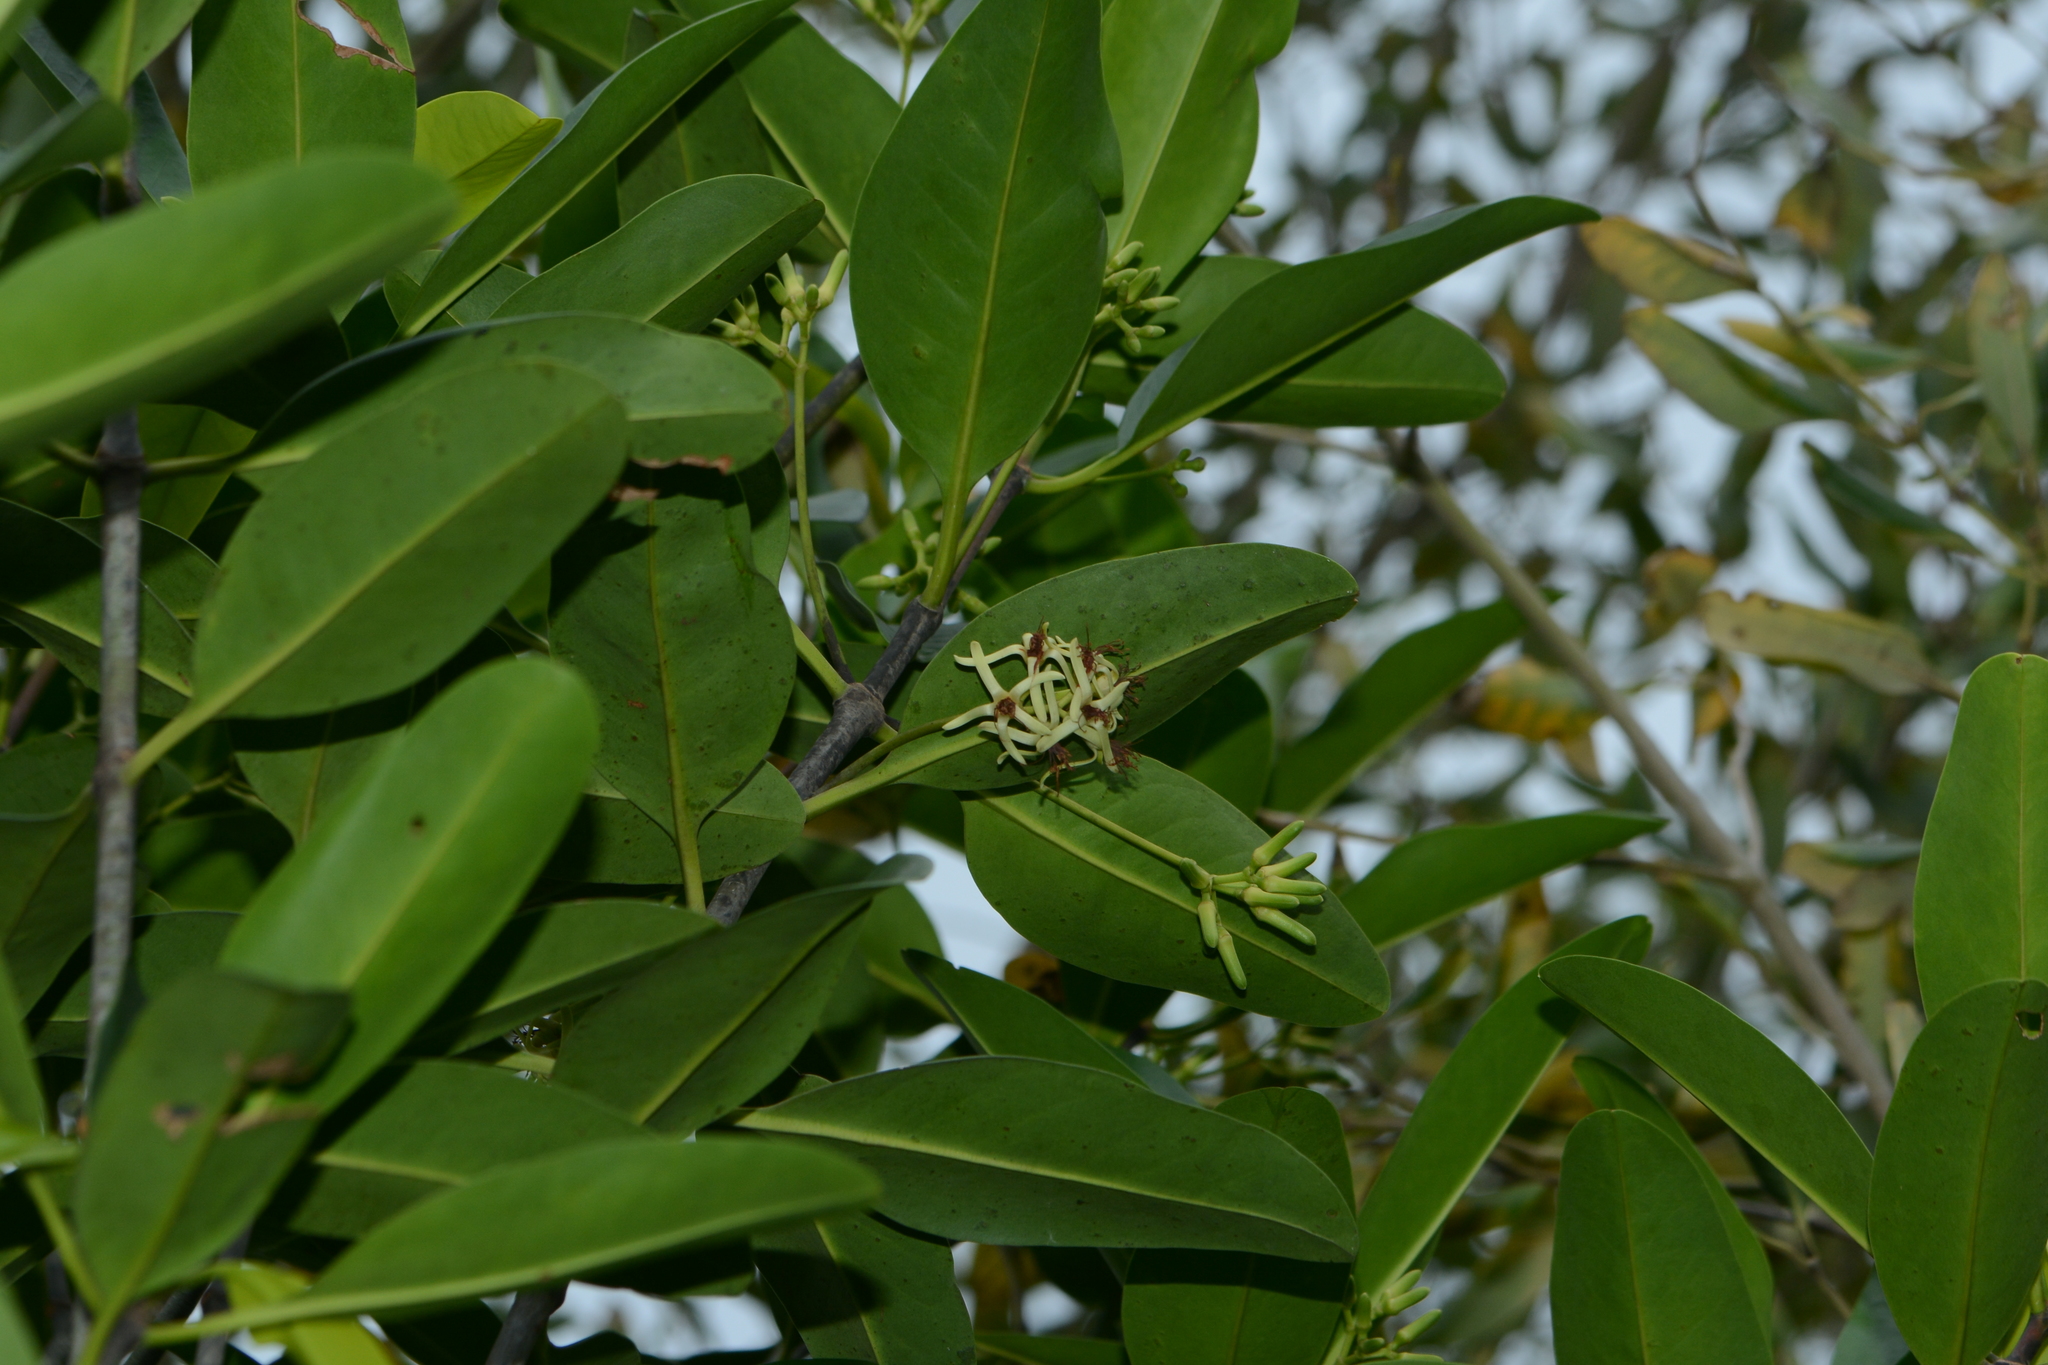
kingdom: Plantae
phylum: Tracheophyta
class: Magnoliopsida
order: Malpighiales
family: Rhizophoraceae
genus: Kandelia
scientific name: Kandelia candel
